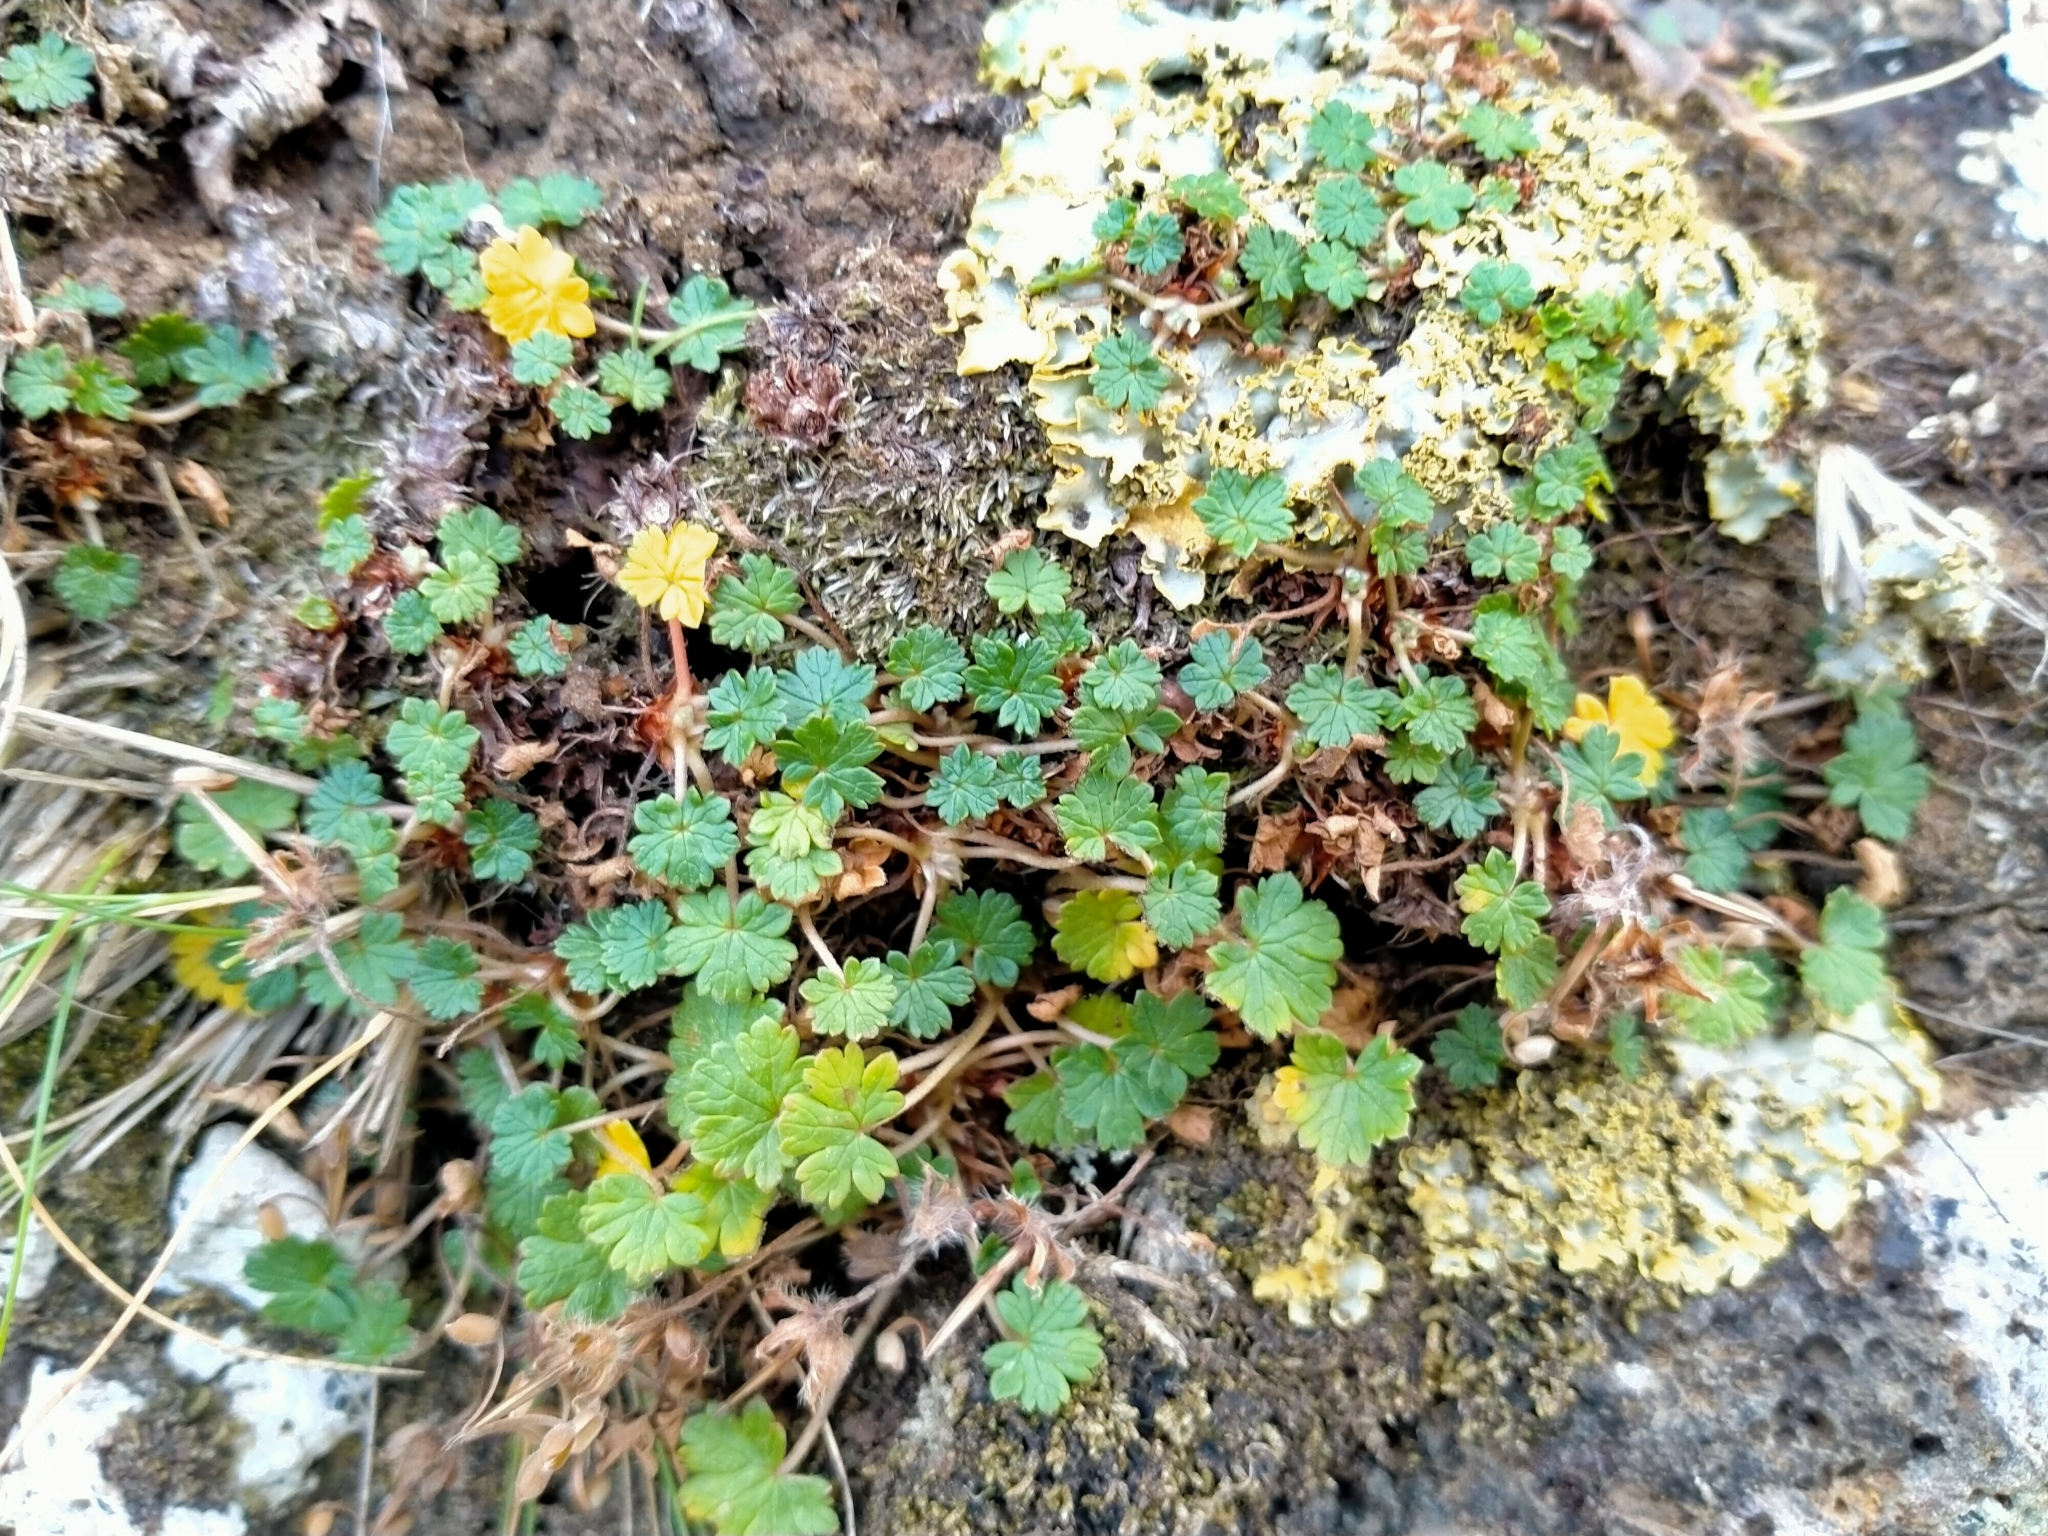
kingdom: Plantae
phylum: Tracheophyta
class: Magnoliopsida
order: Geraniales
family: Geraniaceae
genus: Geranium
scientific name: Geranium brevicaule
